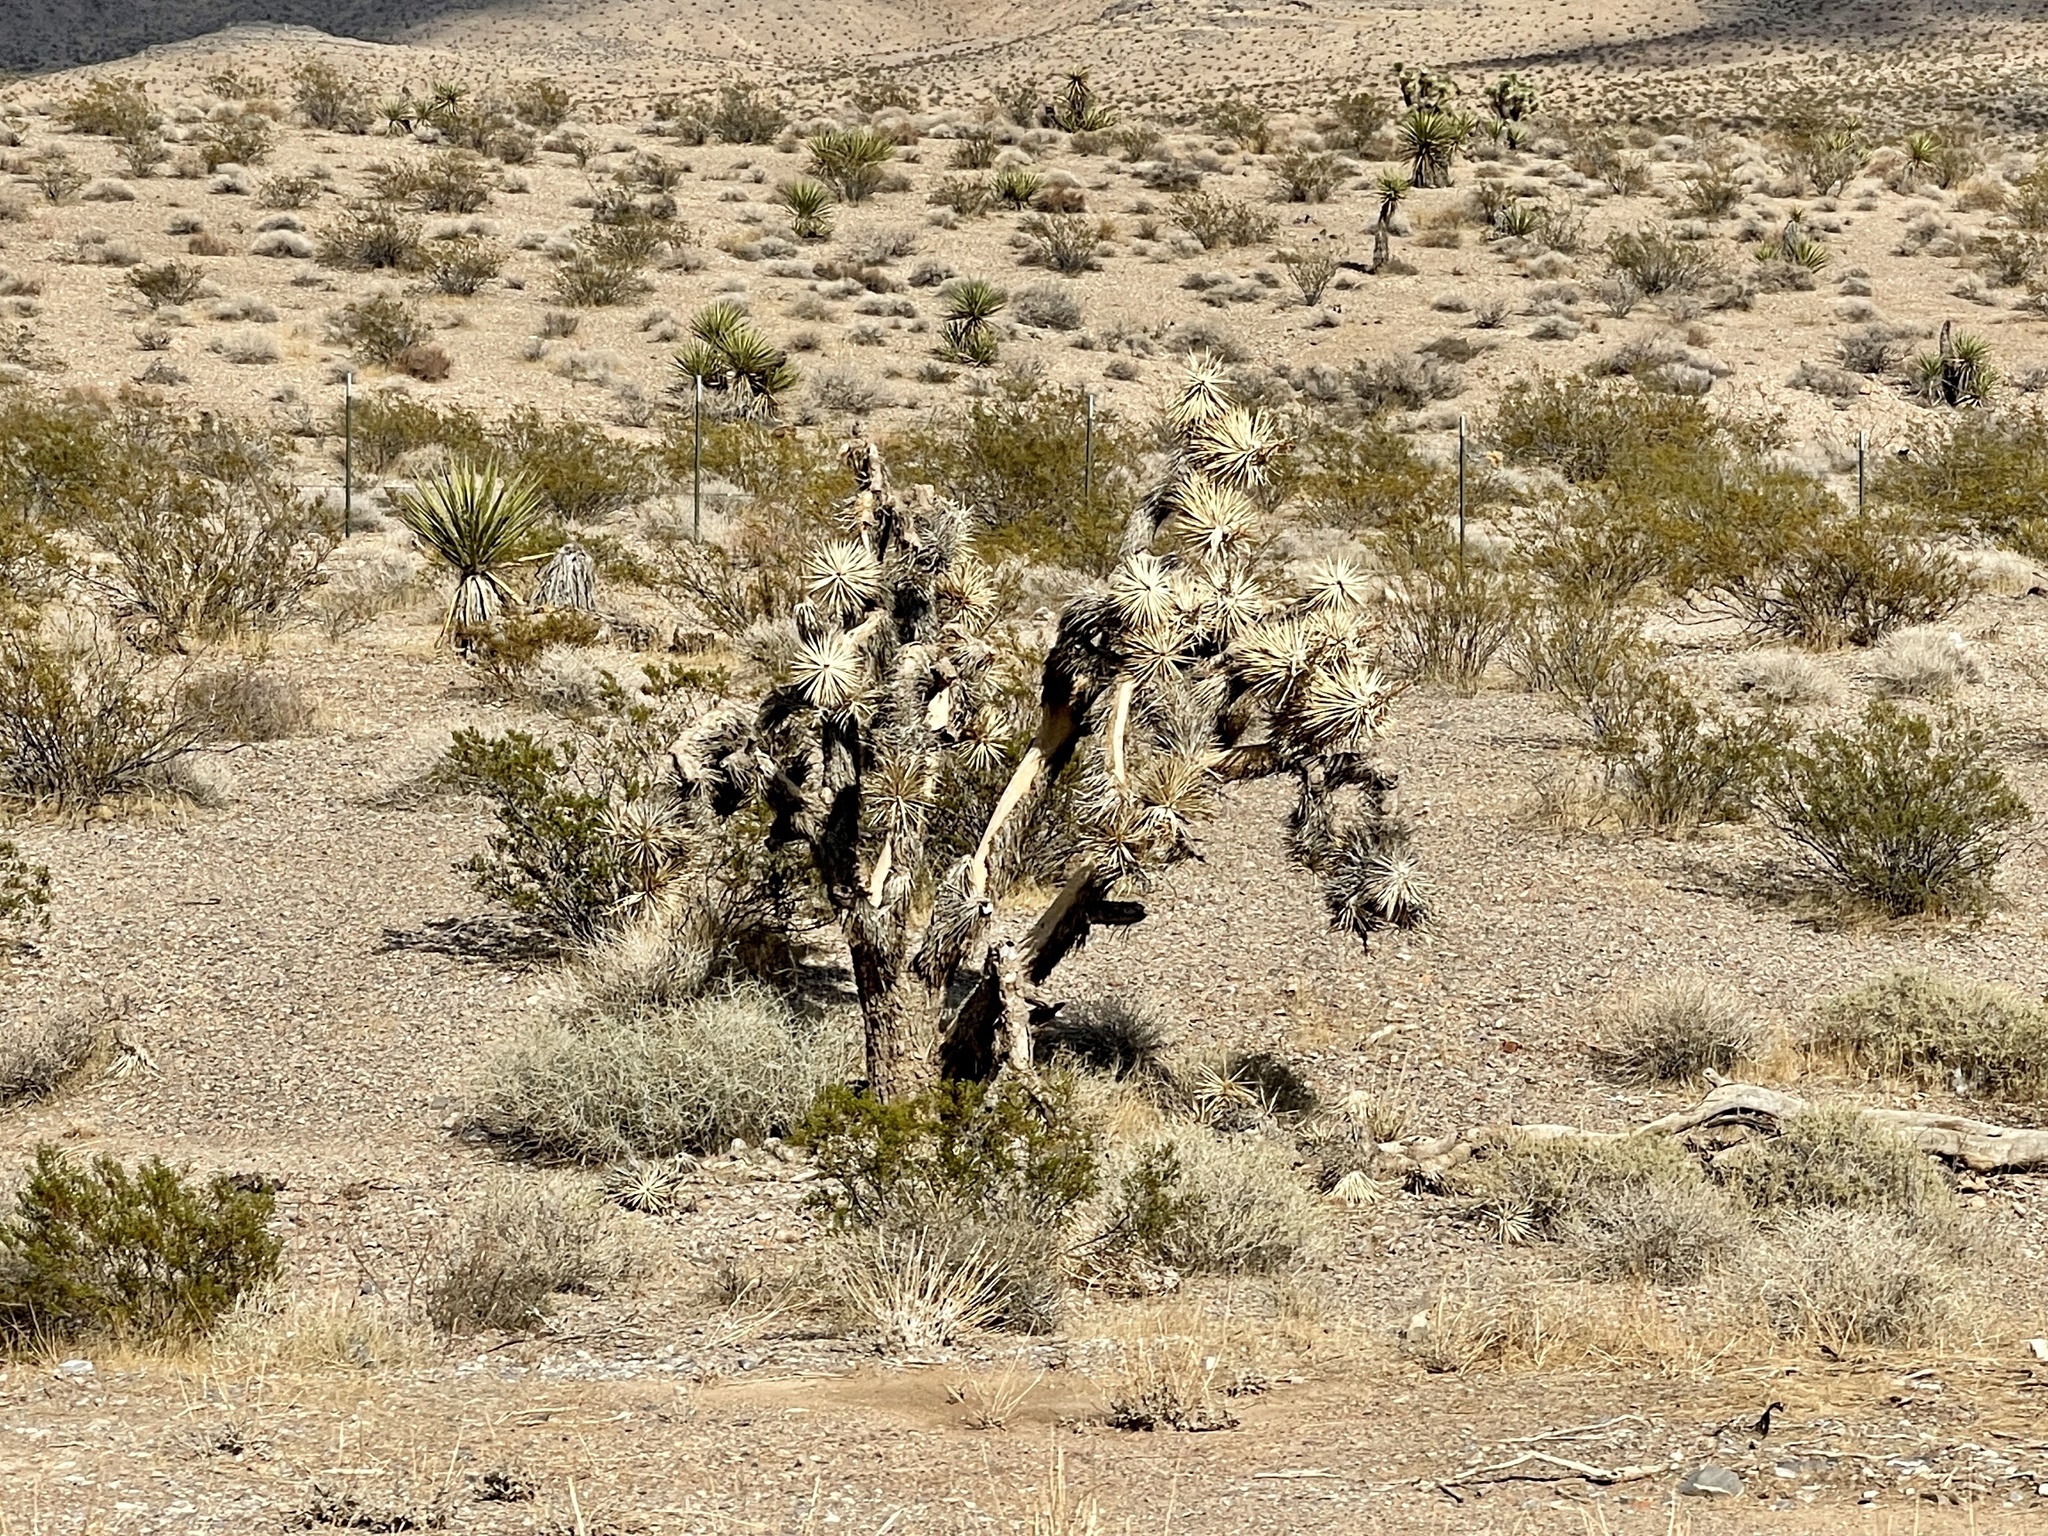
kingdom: Plantae
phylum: Tracheophyta
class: Liliopsida
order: Asparagales
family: Asparagaceae
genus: Yucca
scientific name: Yucca brevifolia
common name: Joshua tree
